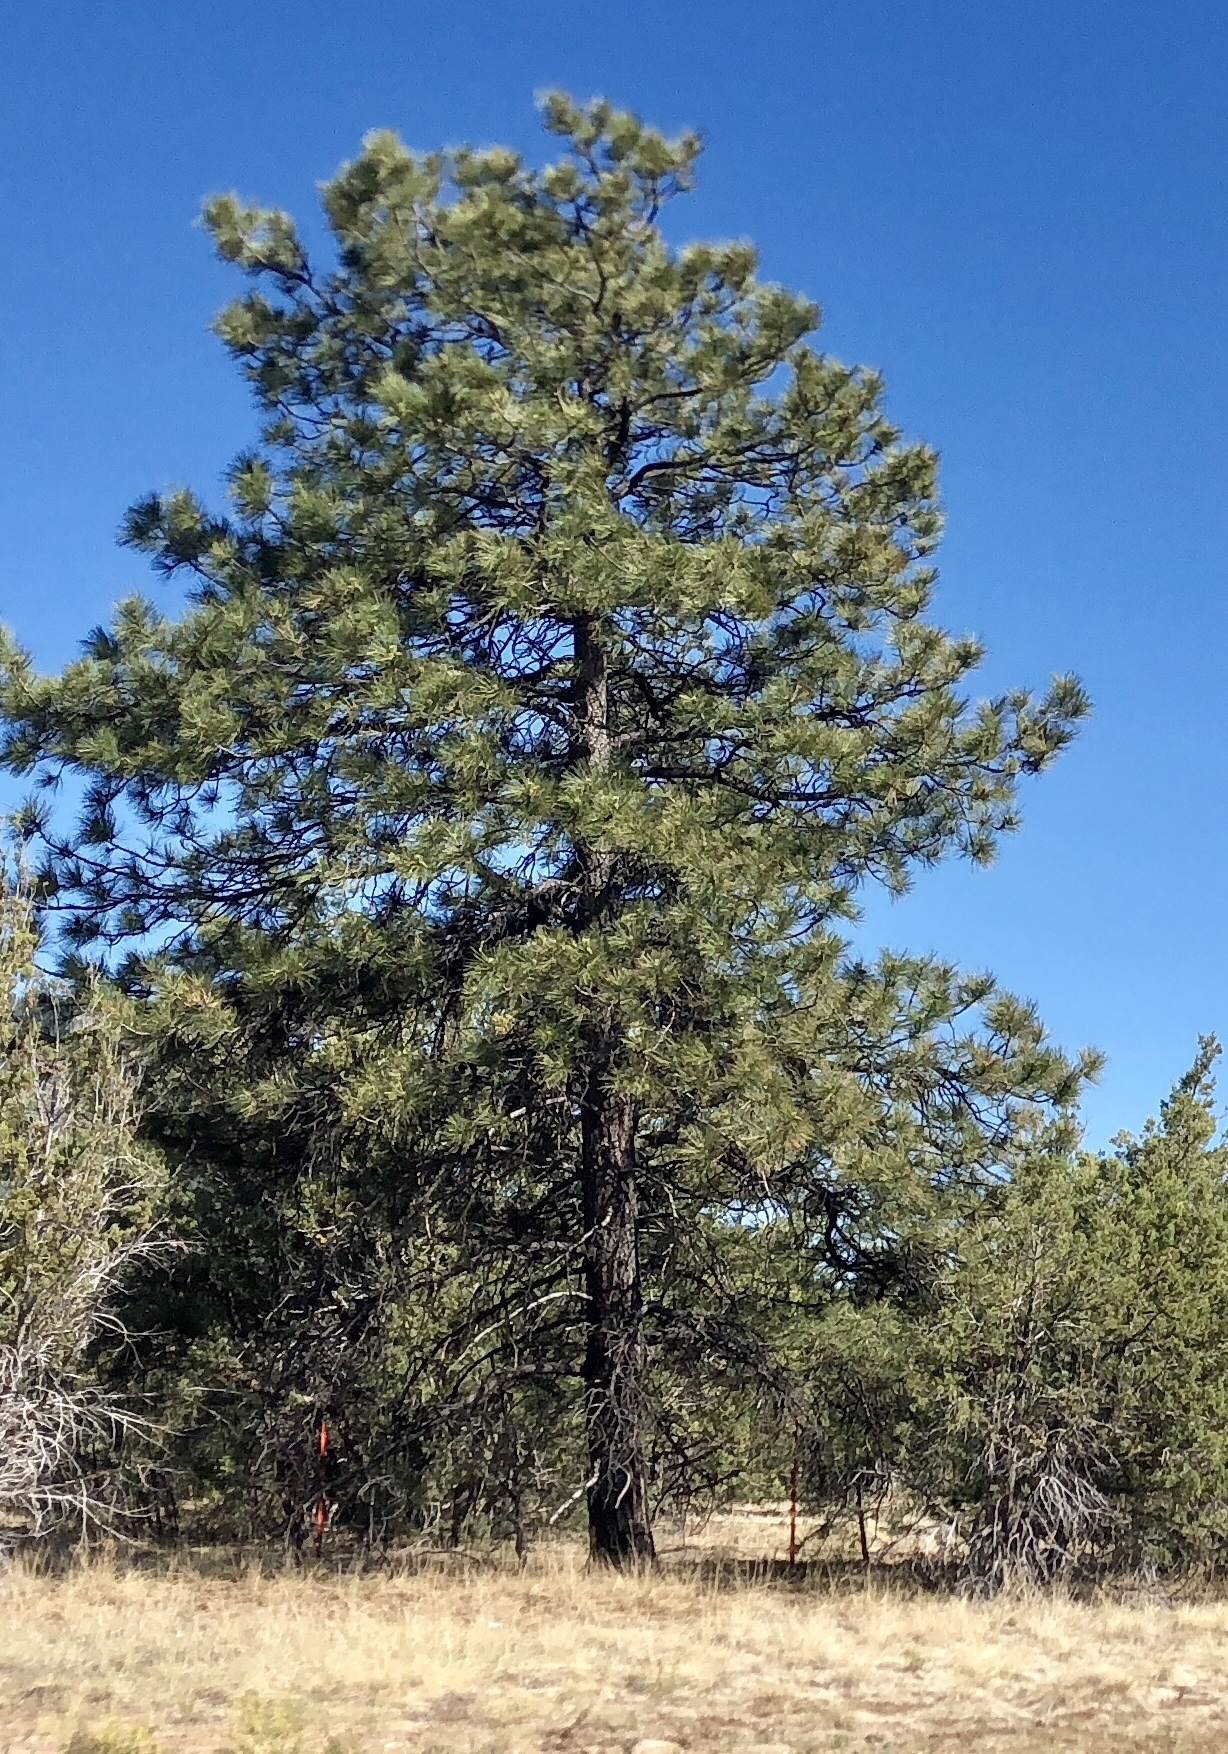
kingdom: Plantae
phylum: Tracheophyta
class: Pinopsida
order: Pinales
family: Pinaceae
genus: Pinus
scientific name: Pinus ponderosa
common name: Western yellow-pine
